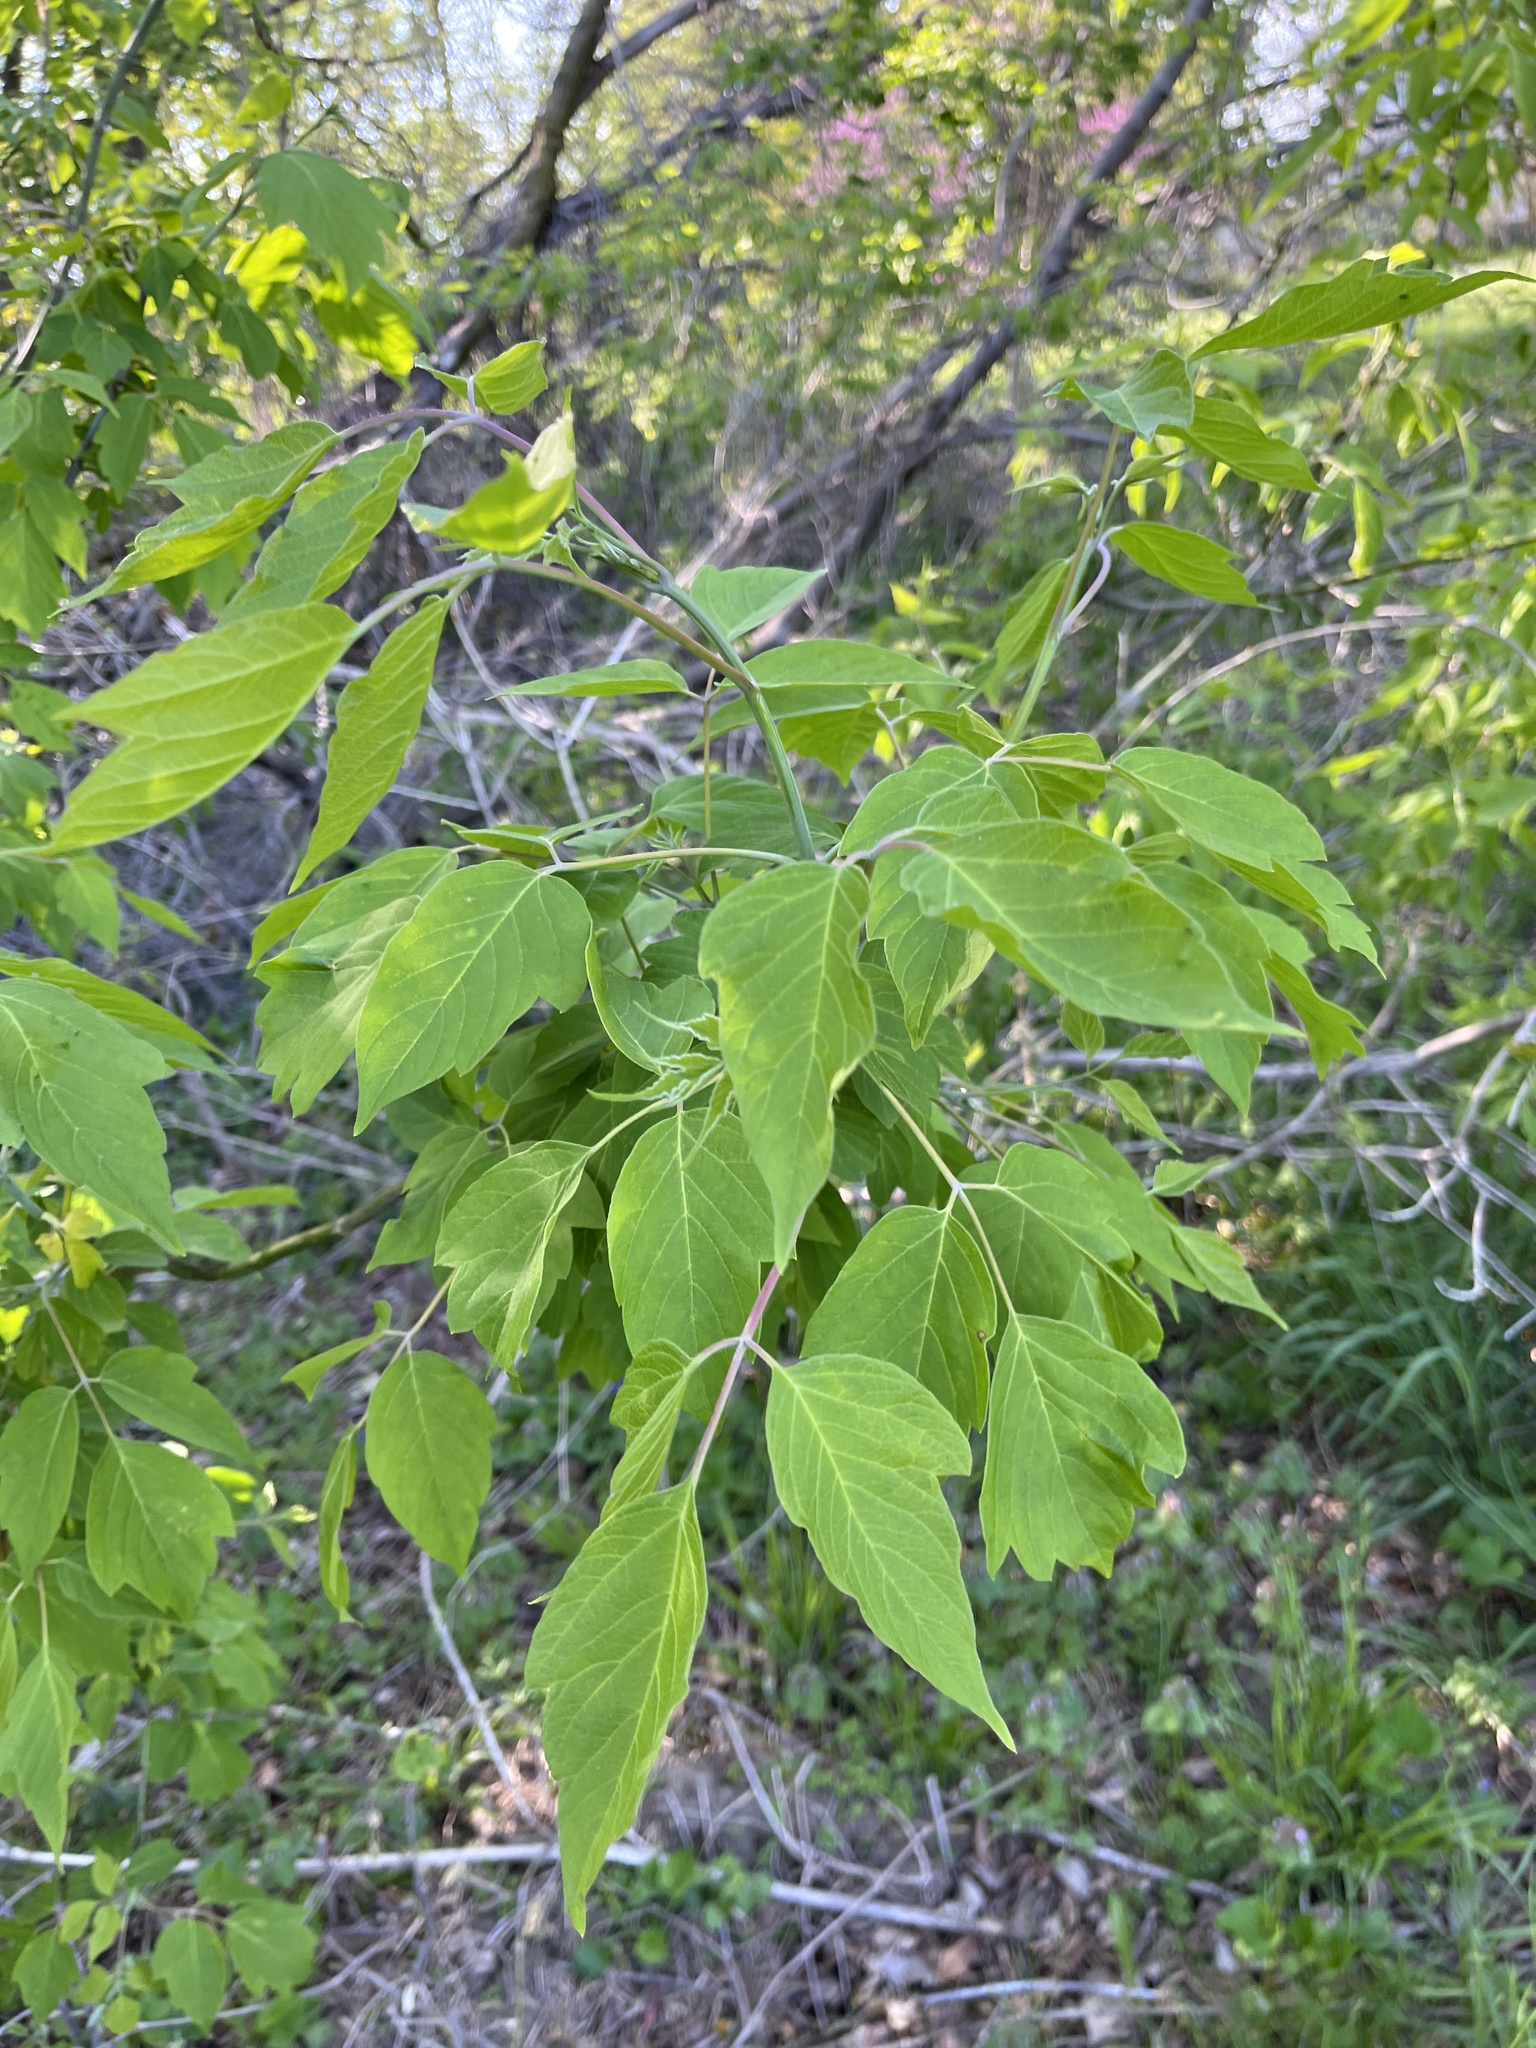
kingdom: Plantae
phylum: Tracheophyta
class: Magnoliopsida
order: Sapindales
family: Sapindaceae
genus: Acer
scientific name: Acer negundo
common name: Ashleaf maple
